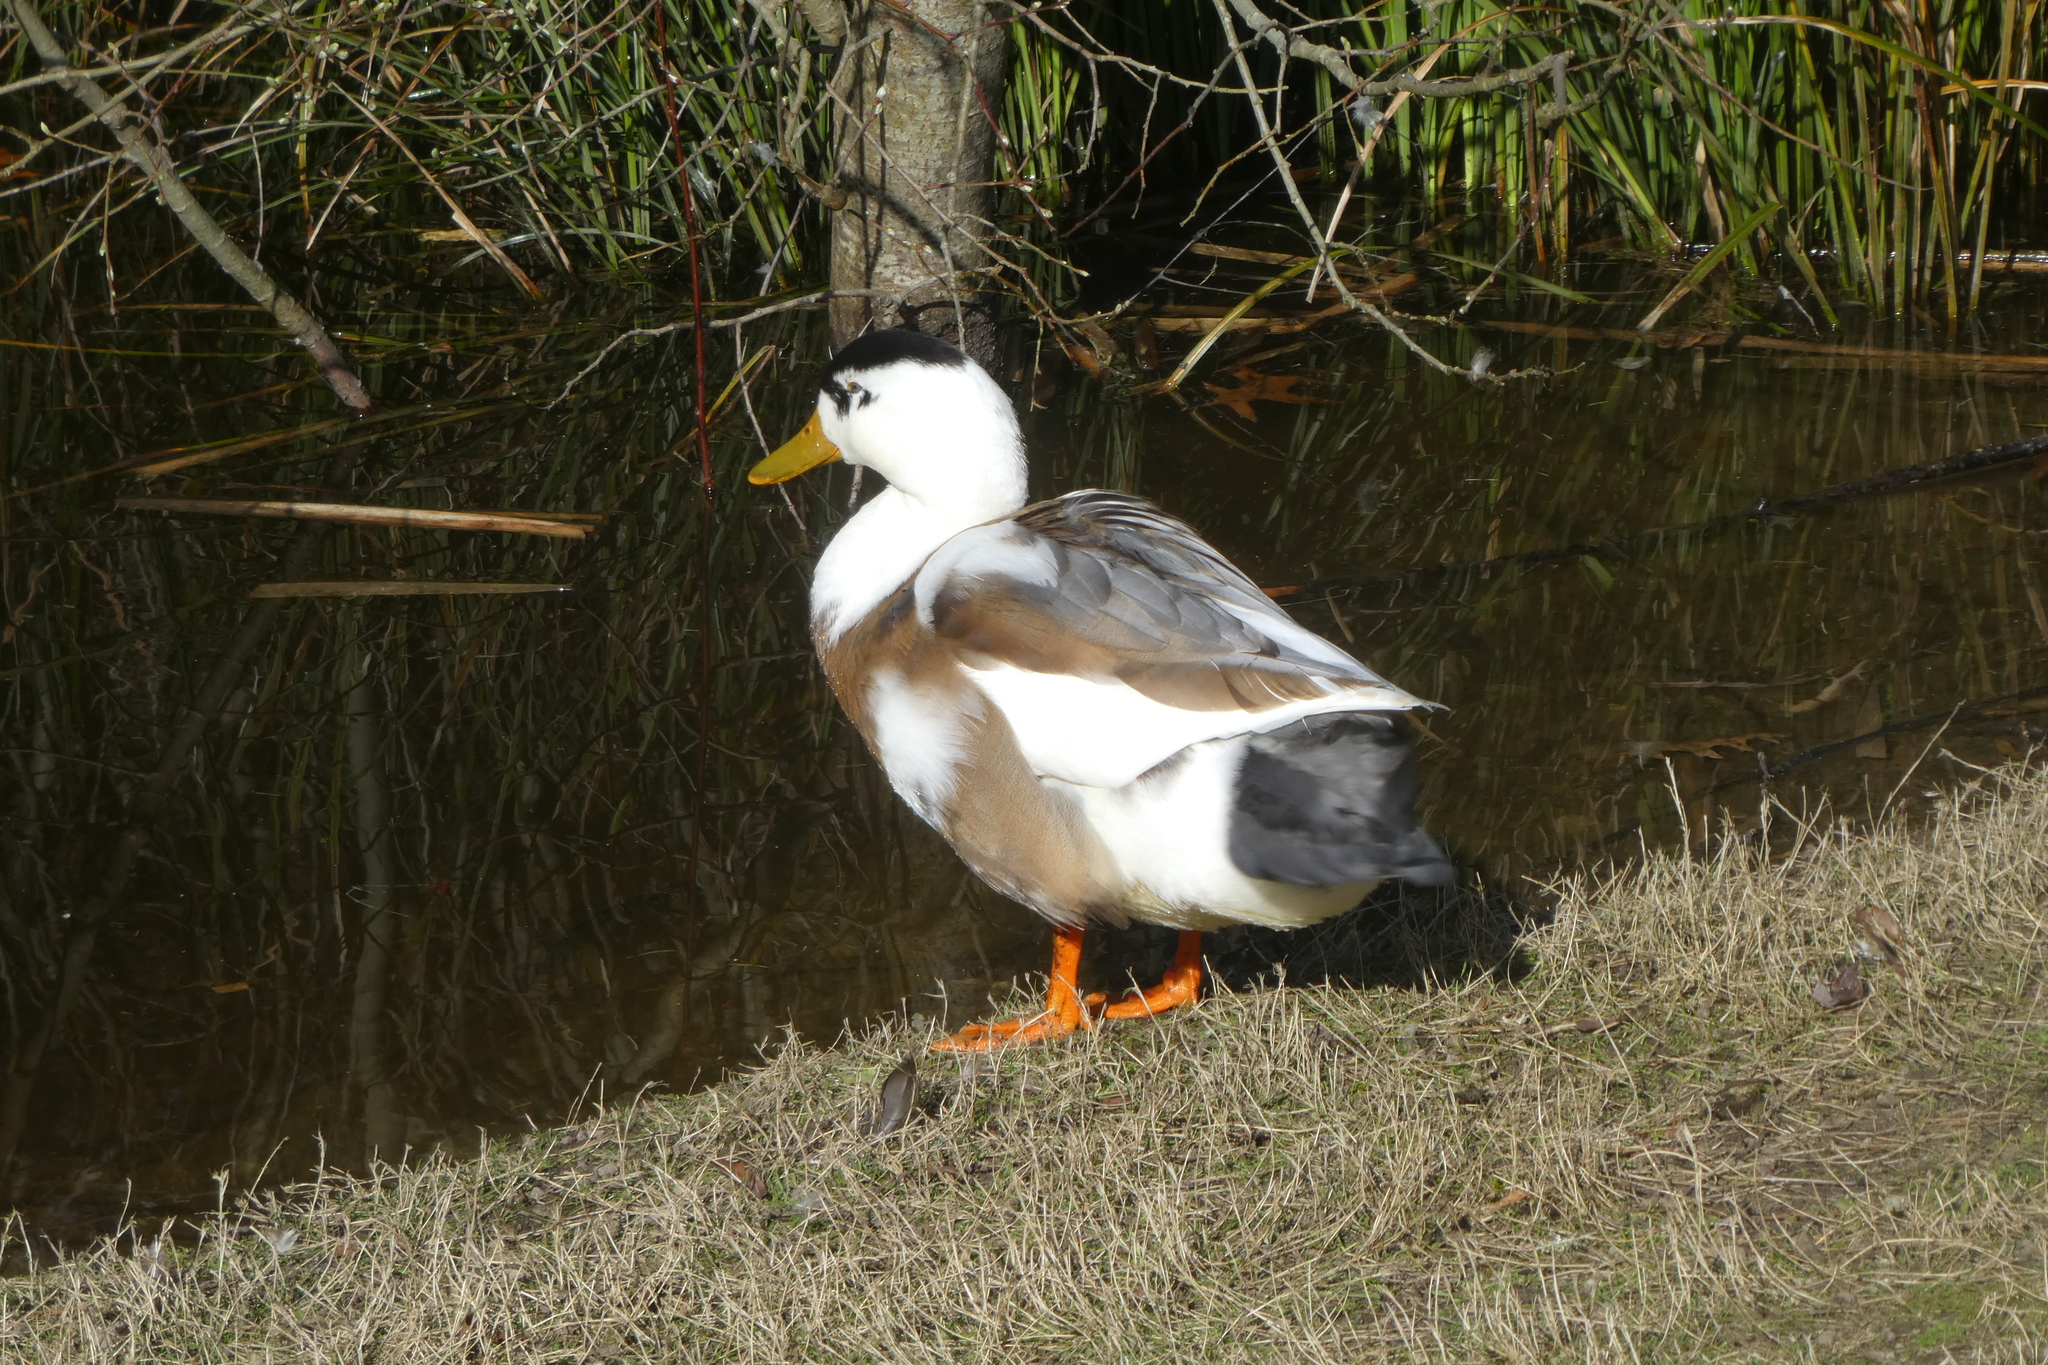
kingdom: Animalia
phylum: Chordata
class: Aves
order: Anseriformes
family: Anatidae
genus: Anas
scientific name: Anas platyrhynchos
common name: Mallard
